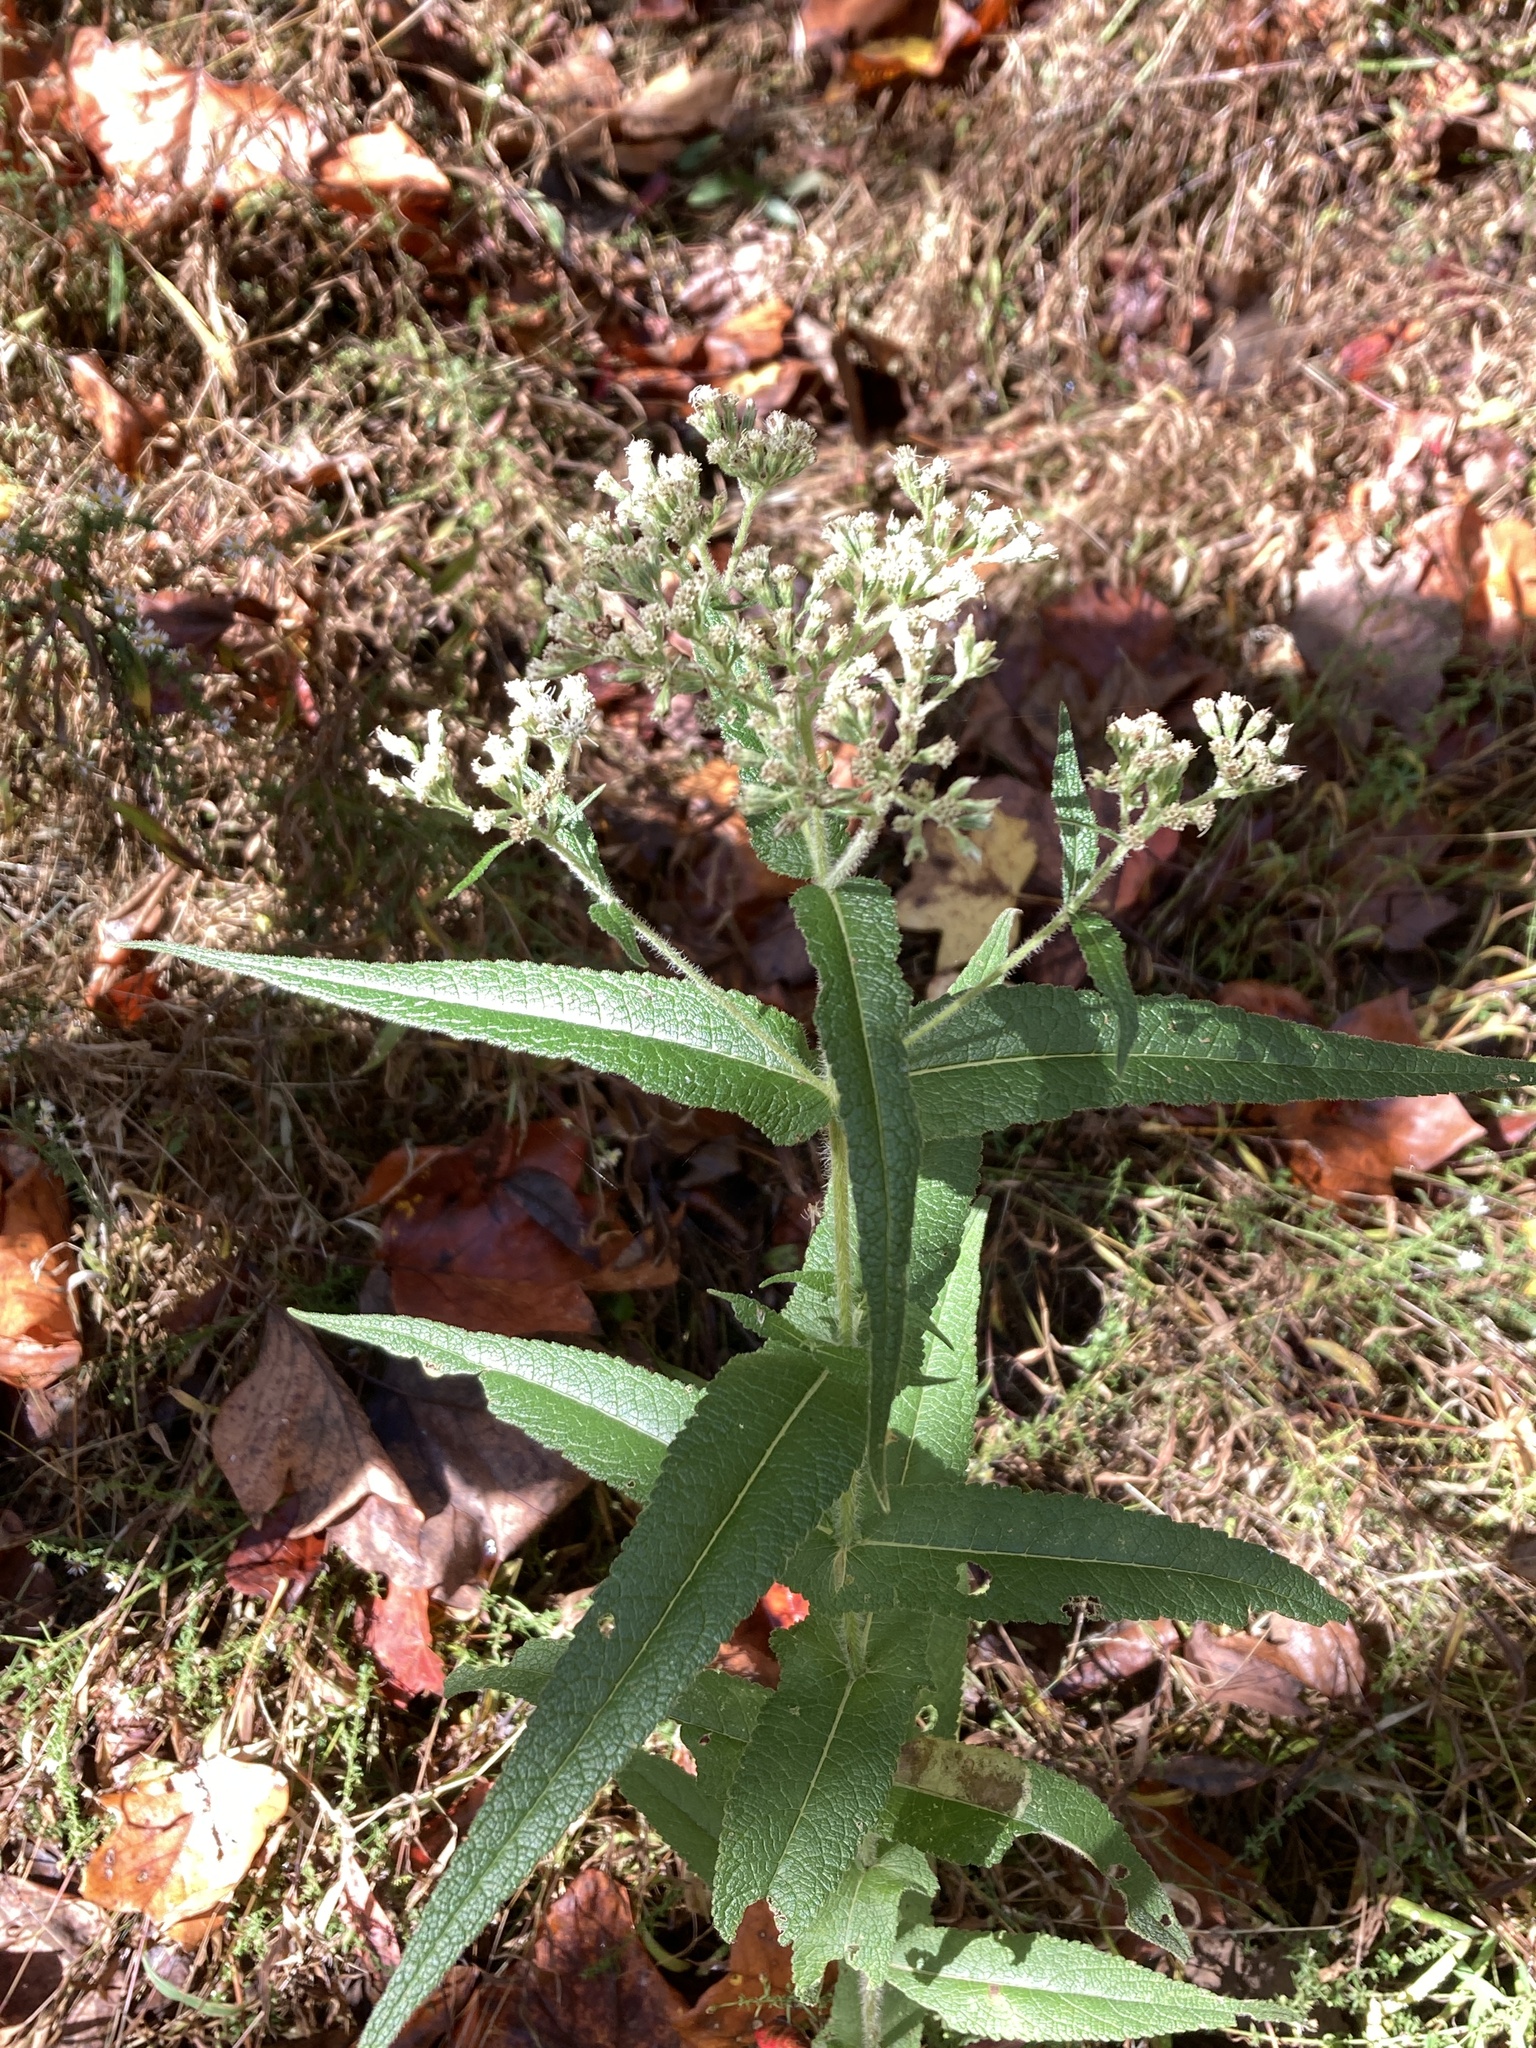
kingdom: Plantae
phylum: Tracheophyta
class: Magnoliopsida
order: Asterales
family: Asteraceae
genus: Eupatorium
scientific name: Eupatorium perfoliatum
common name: Boneset
